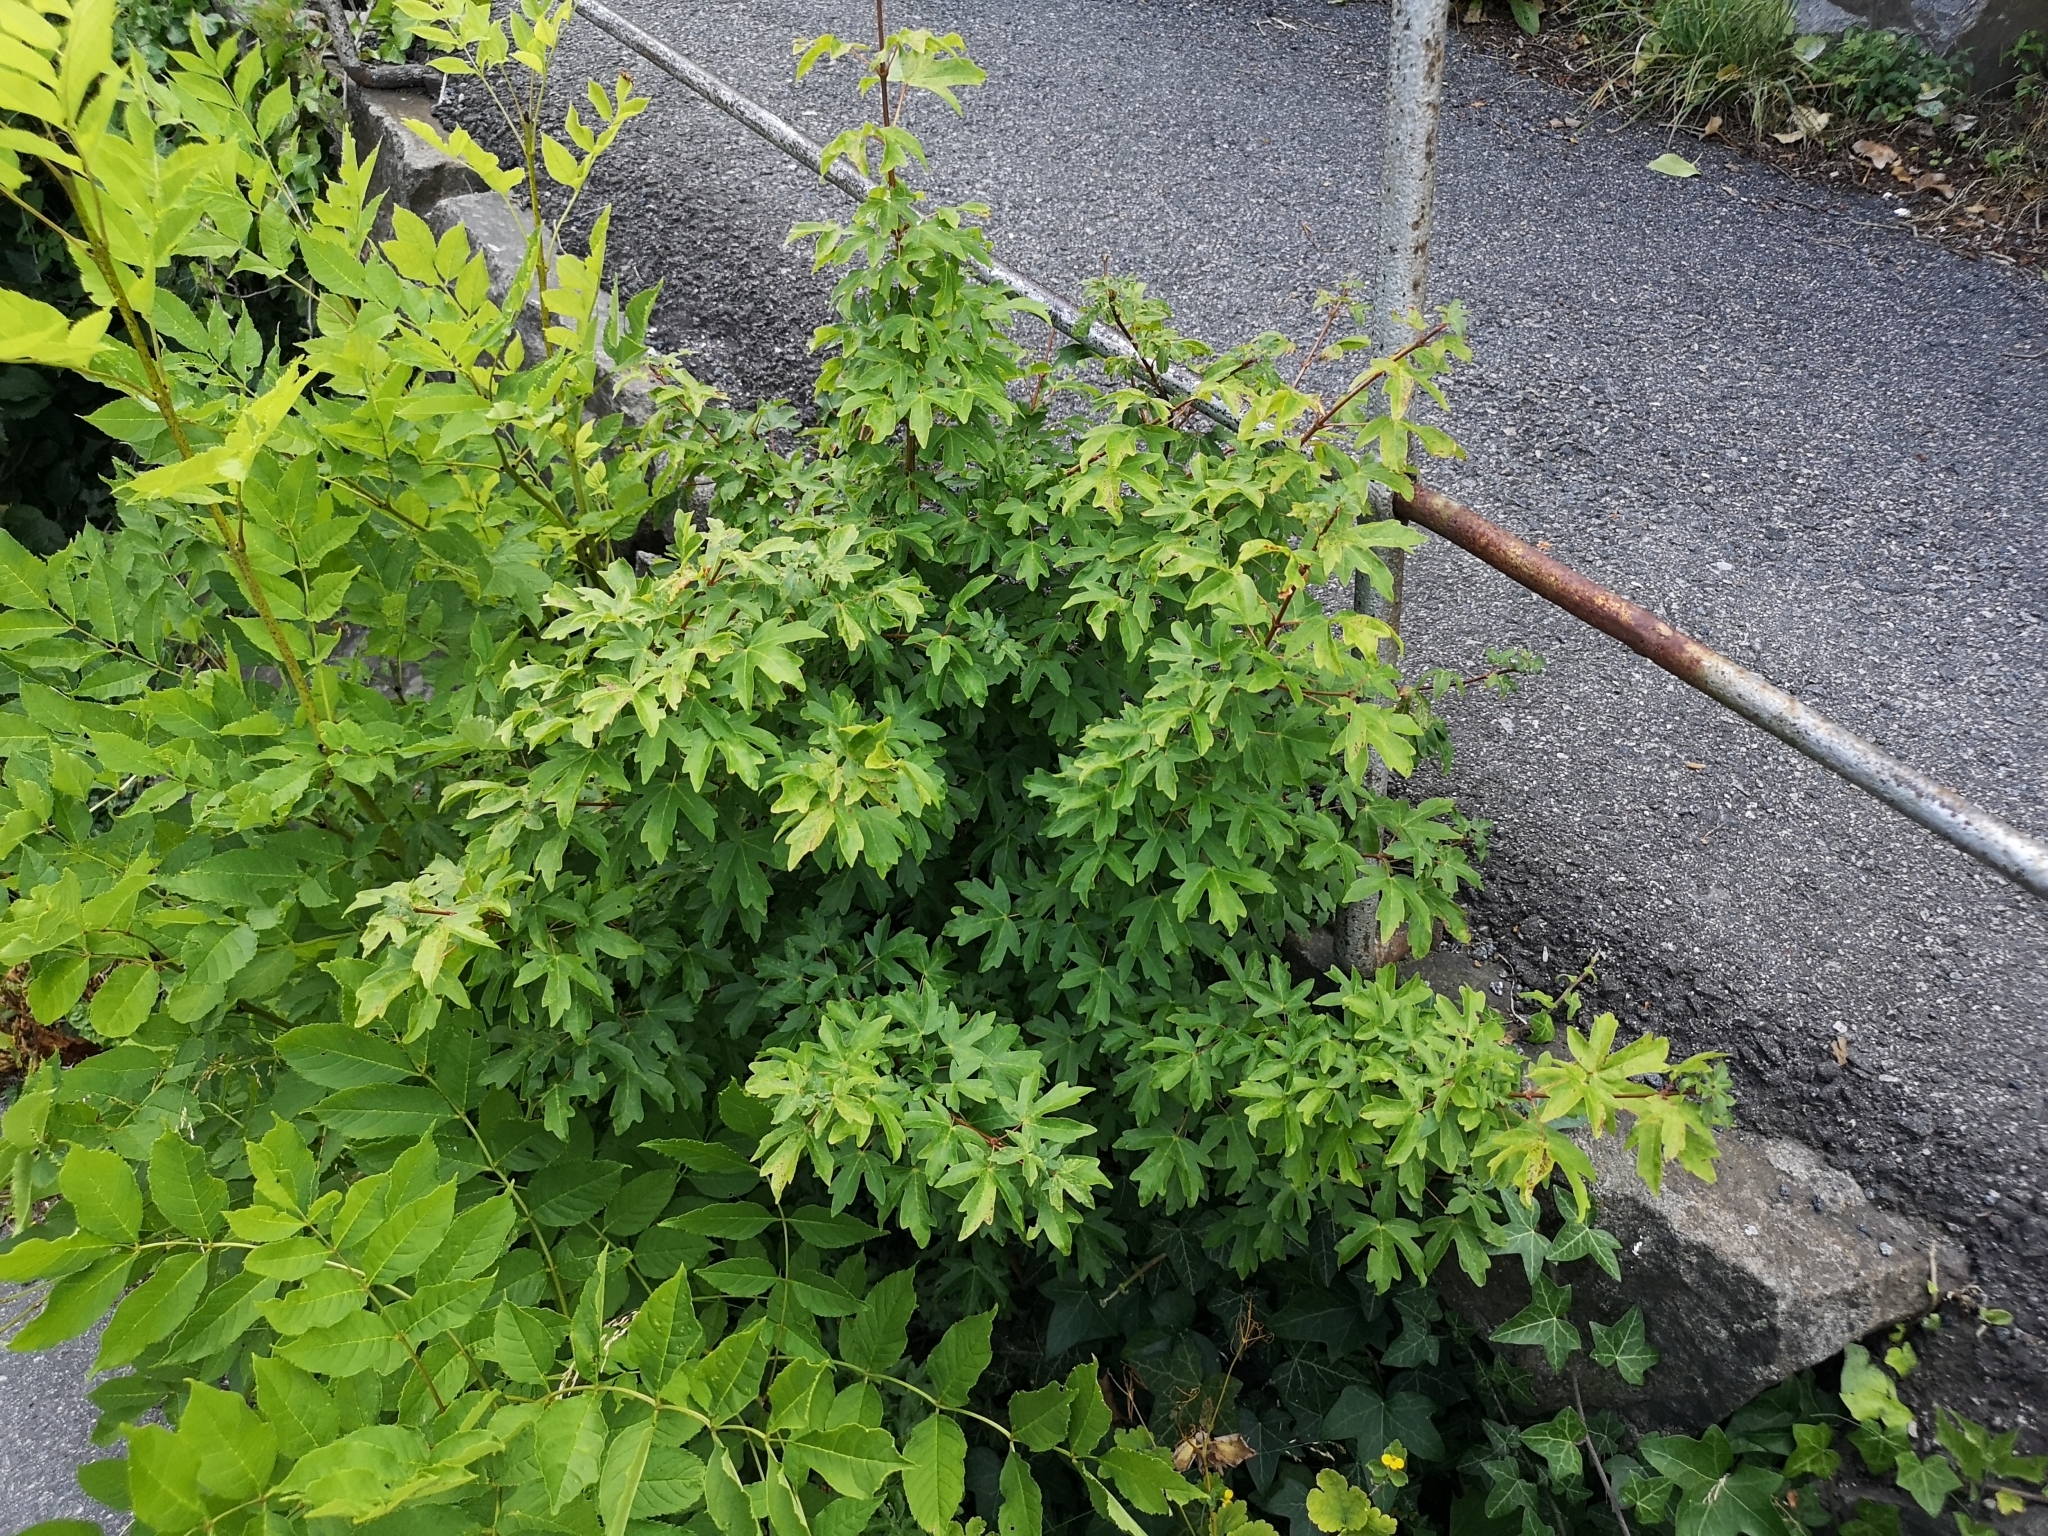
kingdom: Plantae
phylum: Tracheophyta
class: Magnoliopsida
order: Sapindales
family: Sapindaceae
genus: Acer
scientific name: Acer campestre
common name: Field maple
